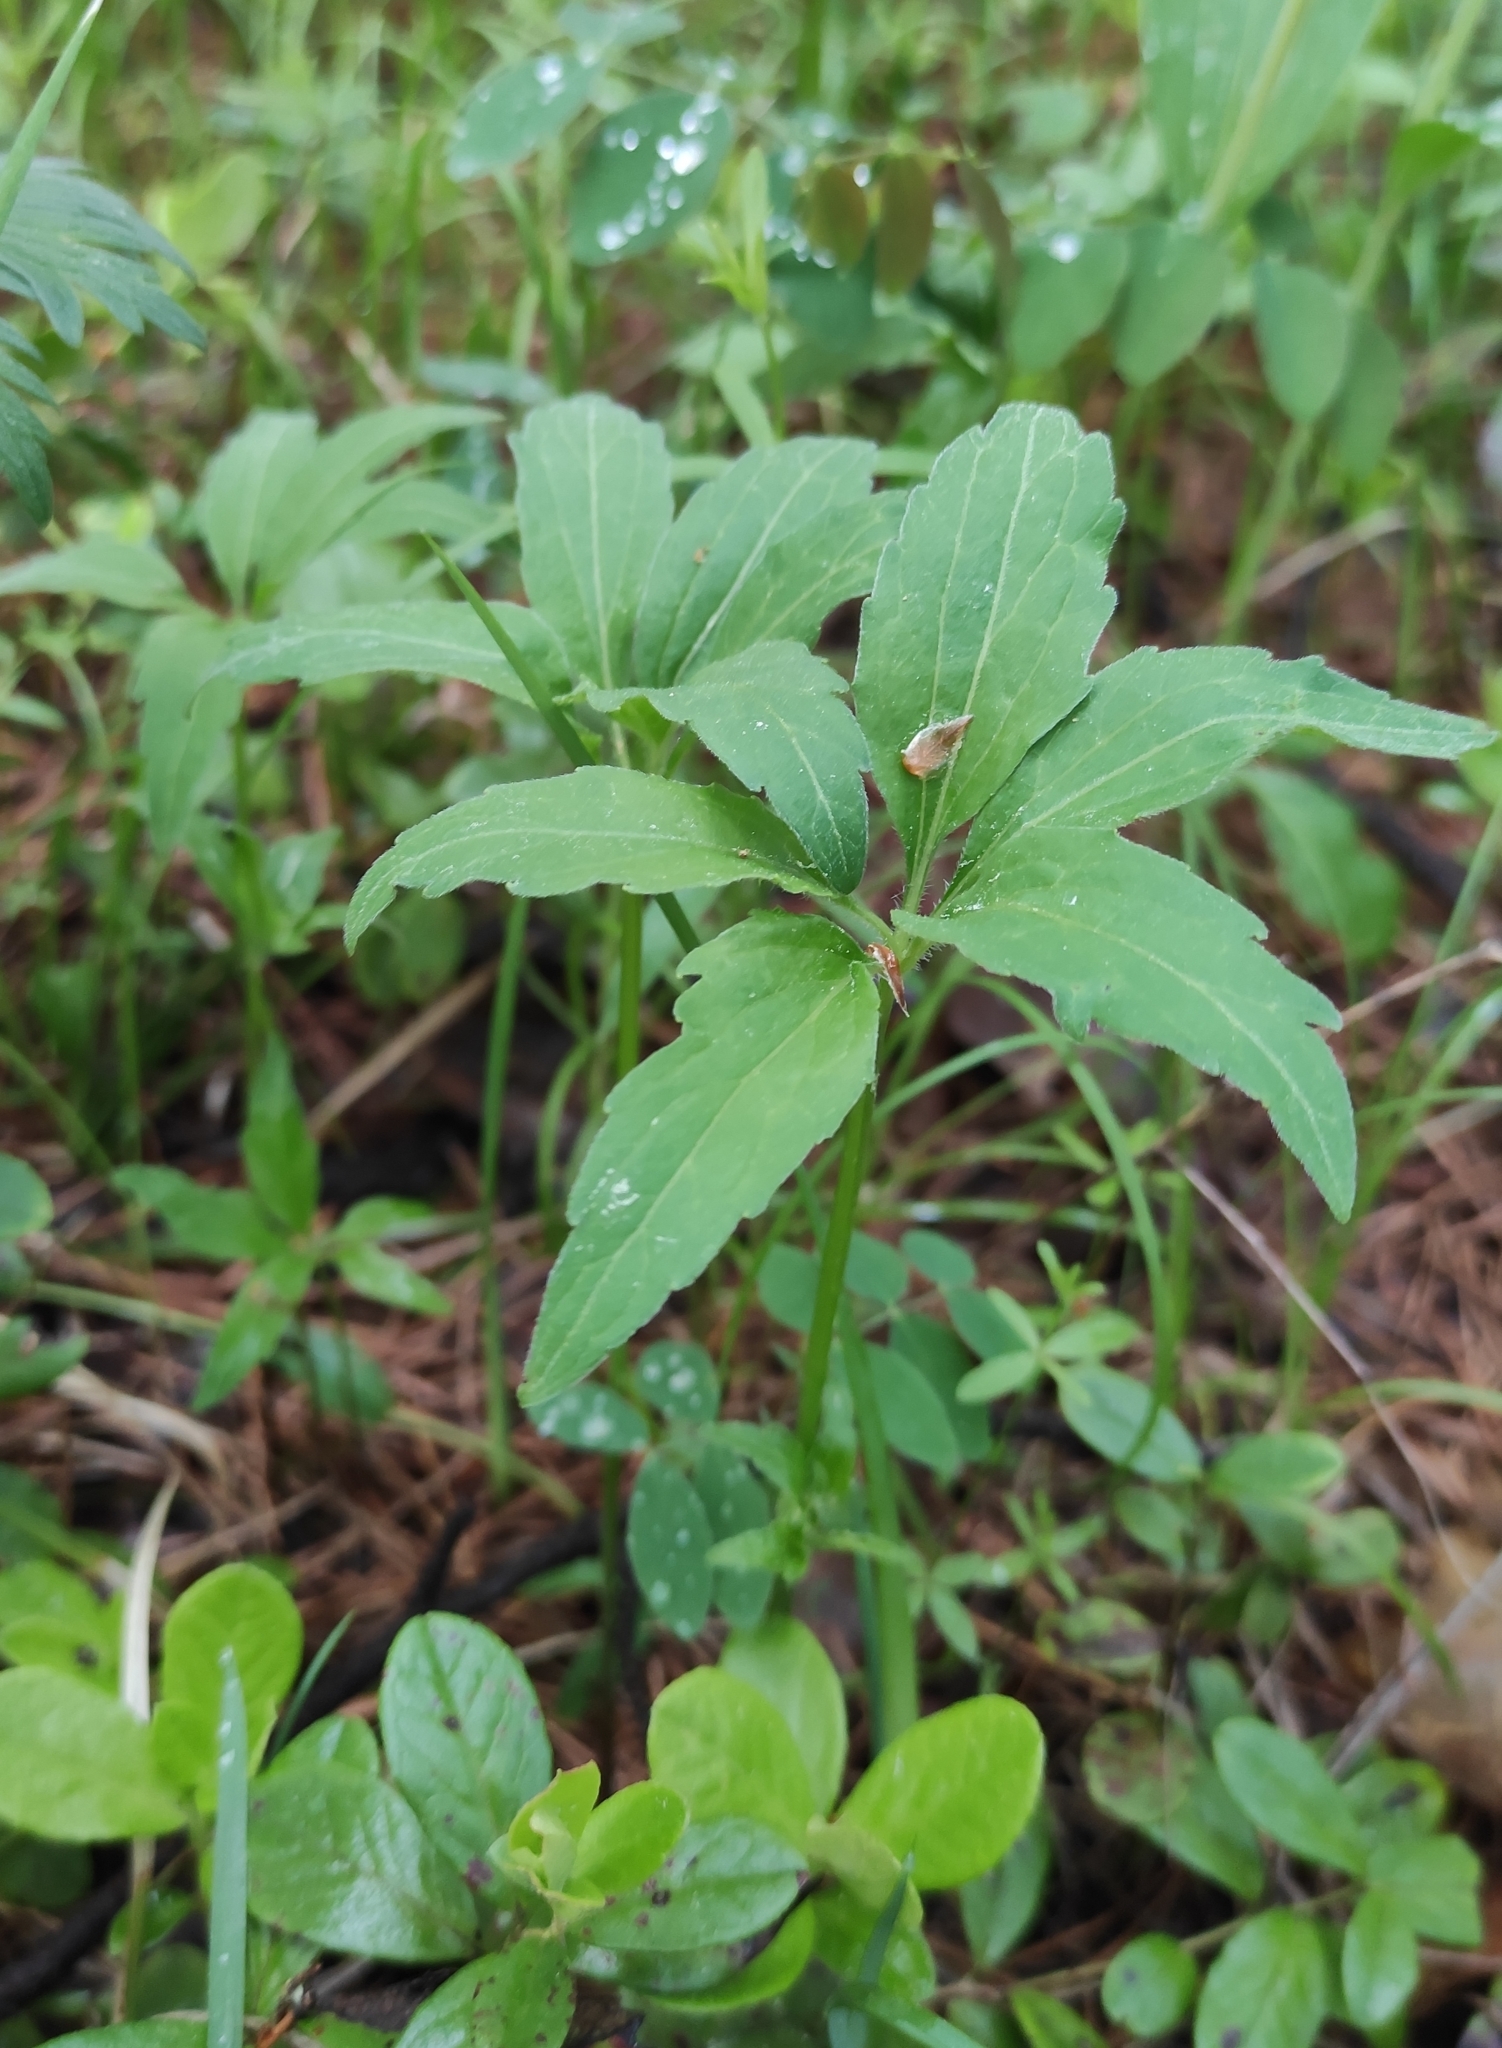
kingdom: Plantae
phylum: Tracheophyta
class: Magnoliopsida
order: Malpighiales
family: Violaceae
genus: Viola
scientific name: Viola dactyloides
